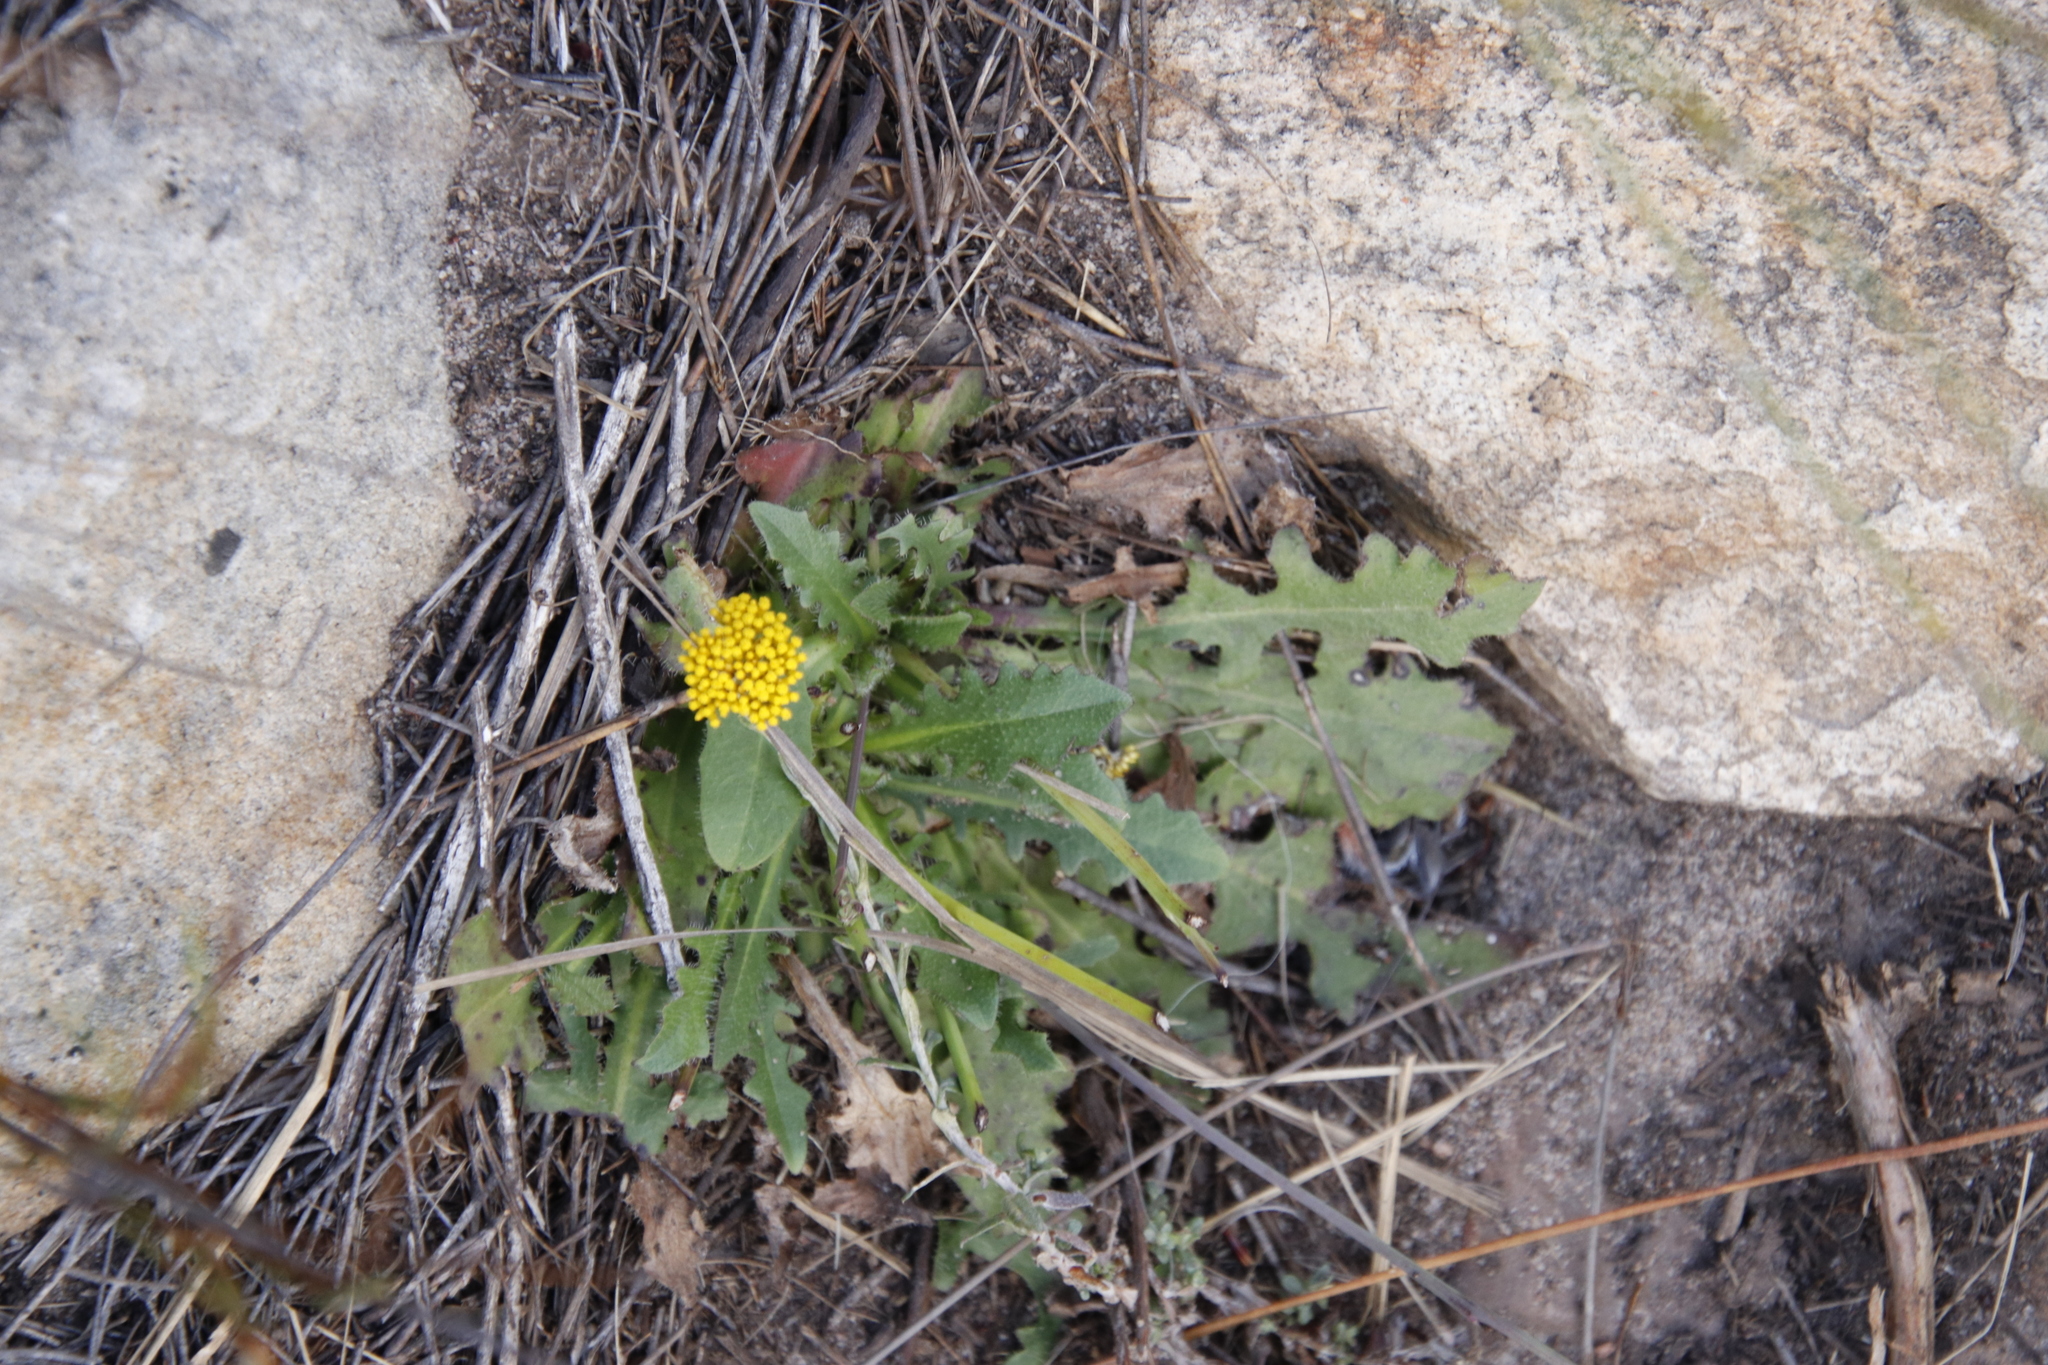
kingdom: Plantae
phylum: Tracheophyta
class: Magnoliopsida
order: Asterales
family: Asteraceae
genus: Hypochaeris
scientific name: Hypochaeris radicata
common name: Flatweed
